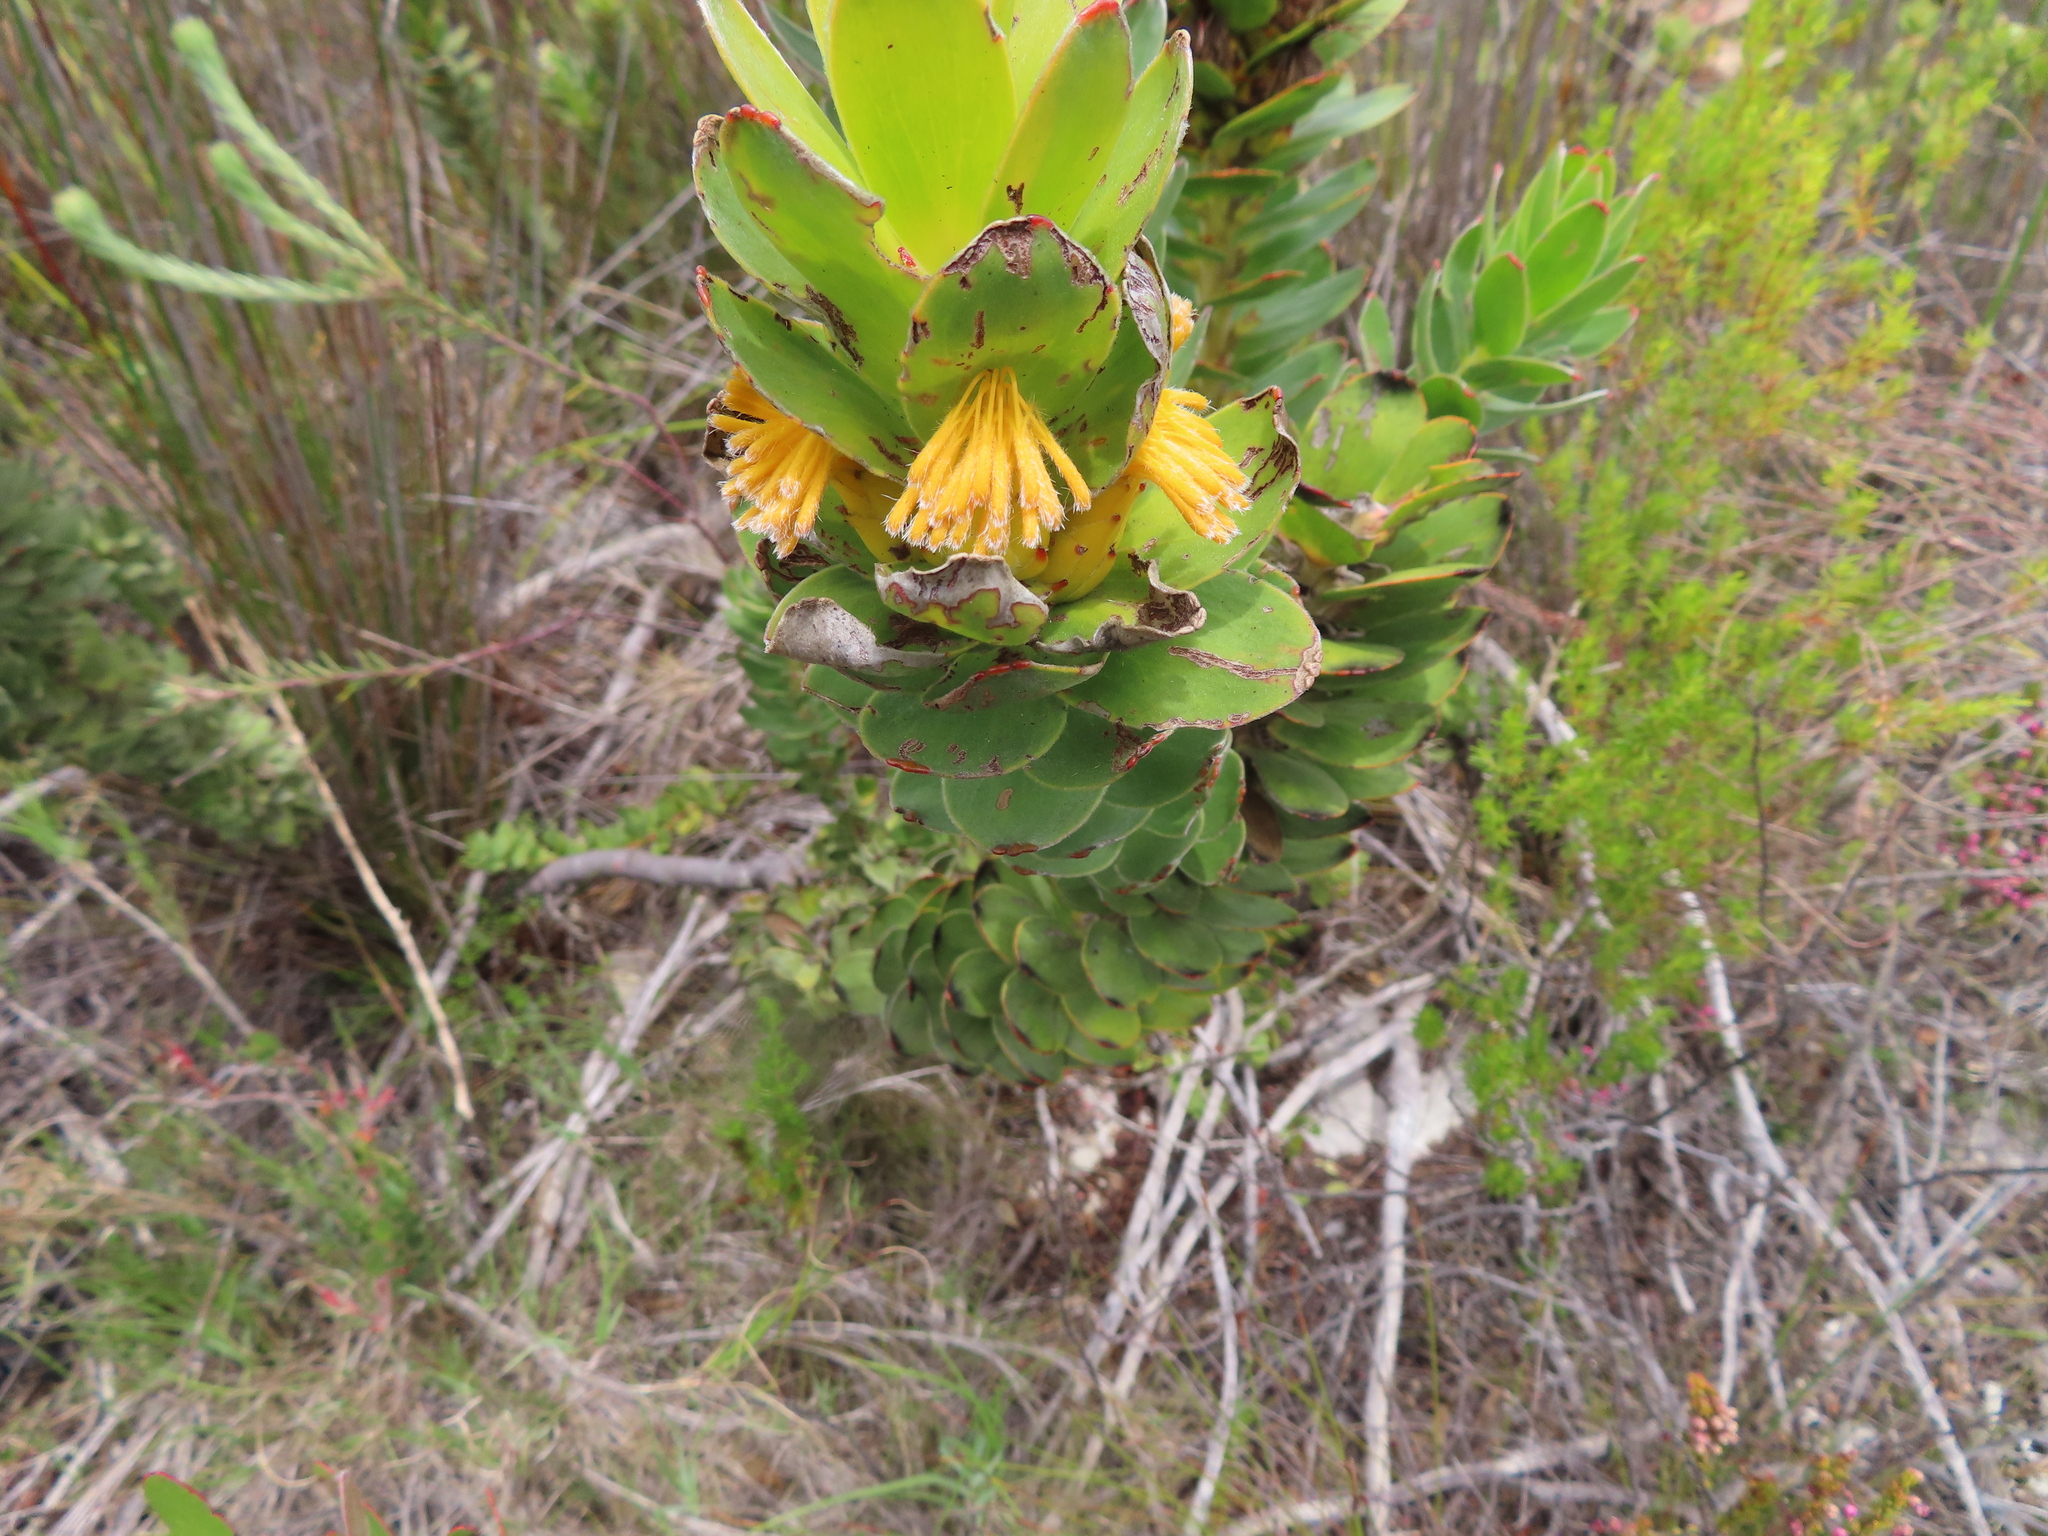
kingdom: Plantae
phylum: Tracheophyta
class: Magnoliopsida
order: Proteales
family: Proteaceae
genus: Mimetes
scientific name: Mimetes saxatilis
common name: Limestone pagoda
